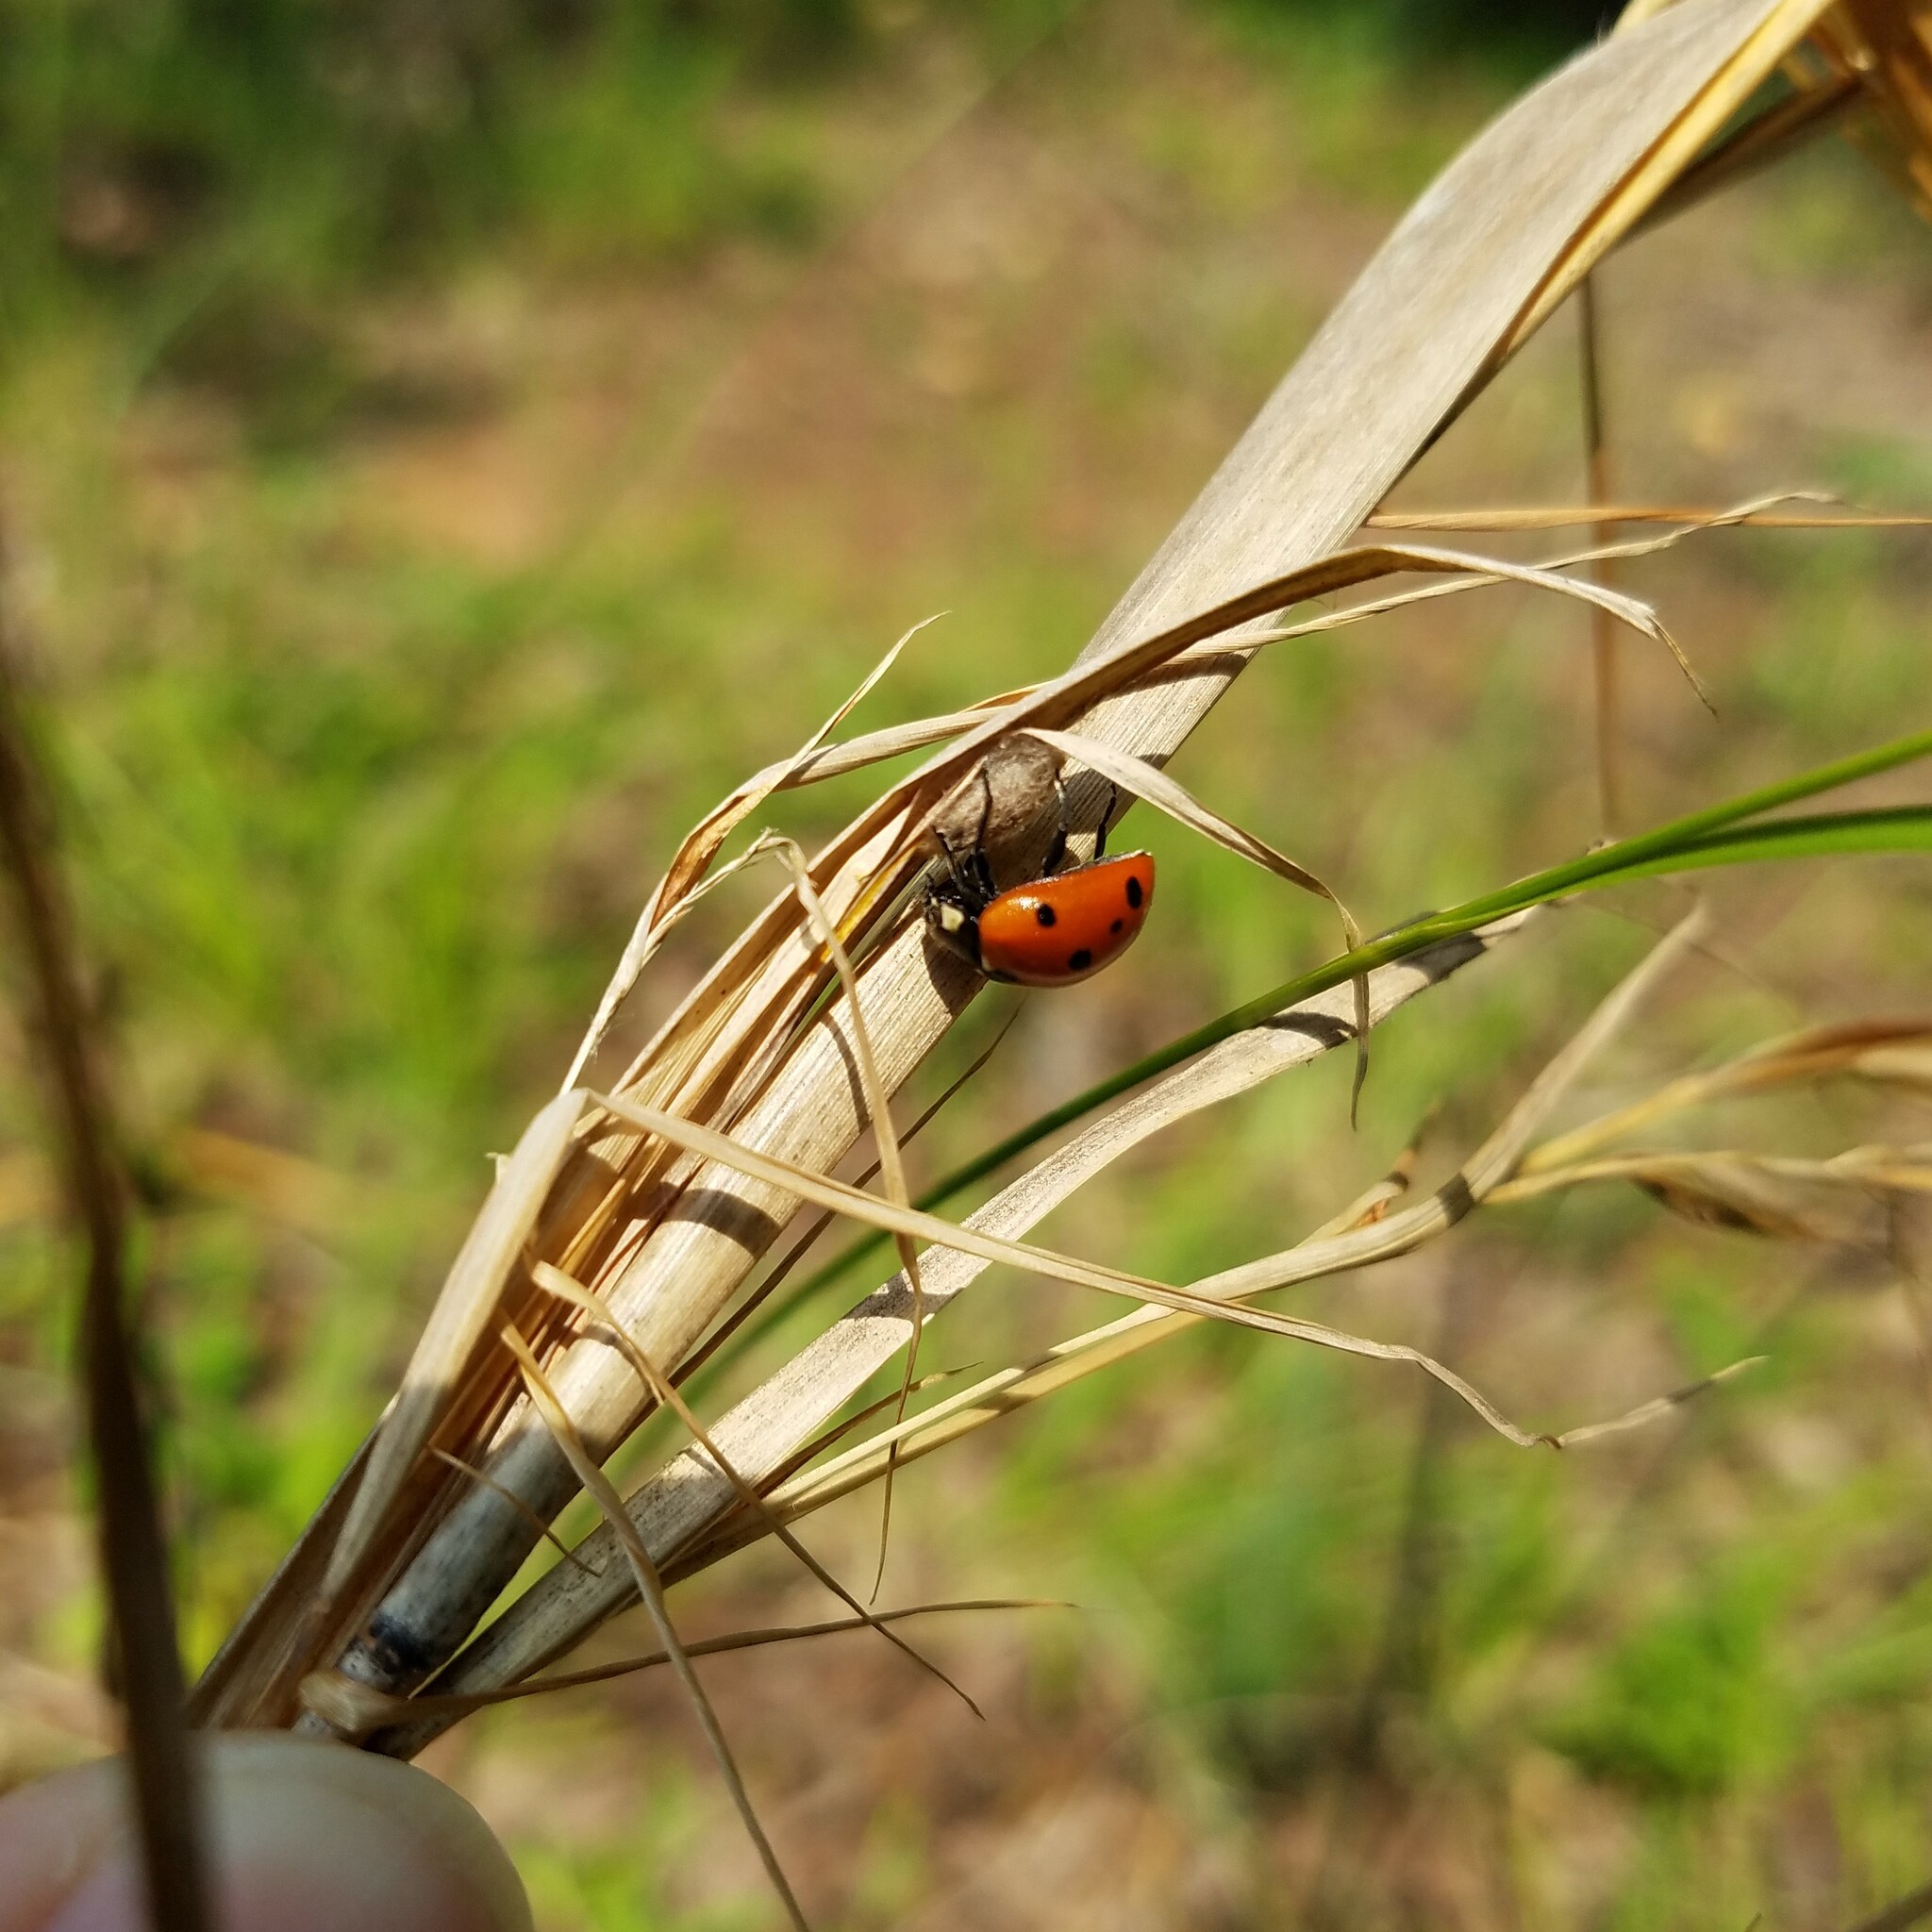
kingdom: Animalia
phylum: Arthropoda
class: Insecta
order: Coleoptera
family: Coccinellidae
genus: Coccinella
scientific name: Coccinella septempunctata
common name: Sevenspotted lady beetle
